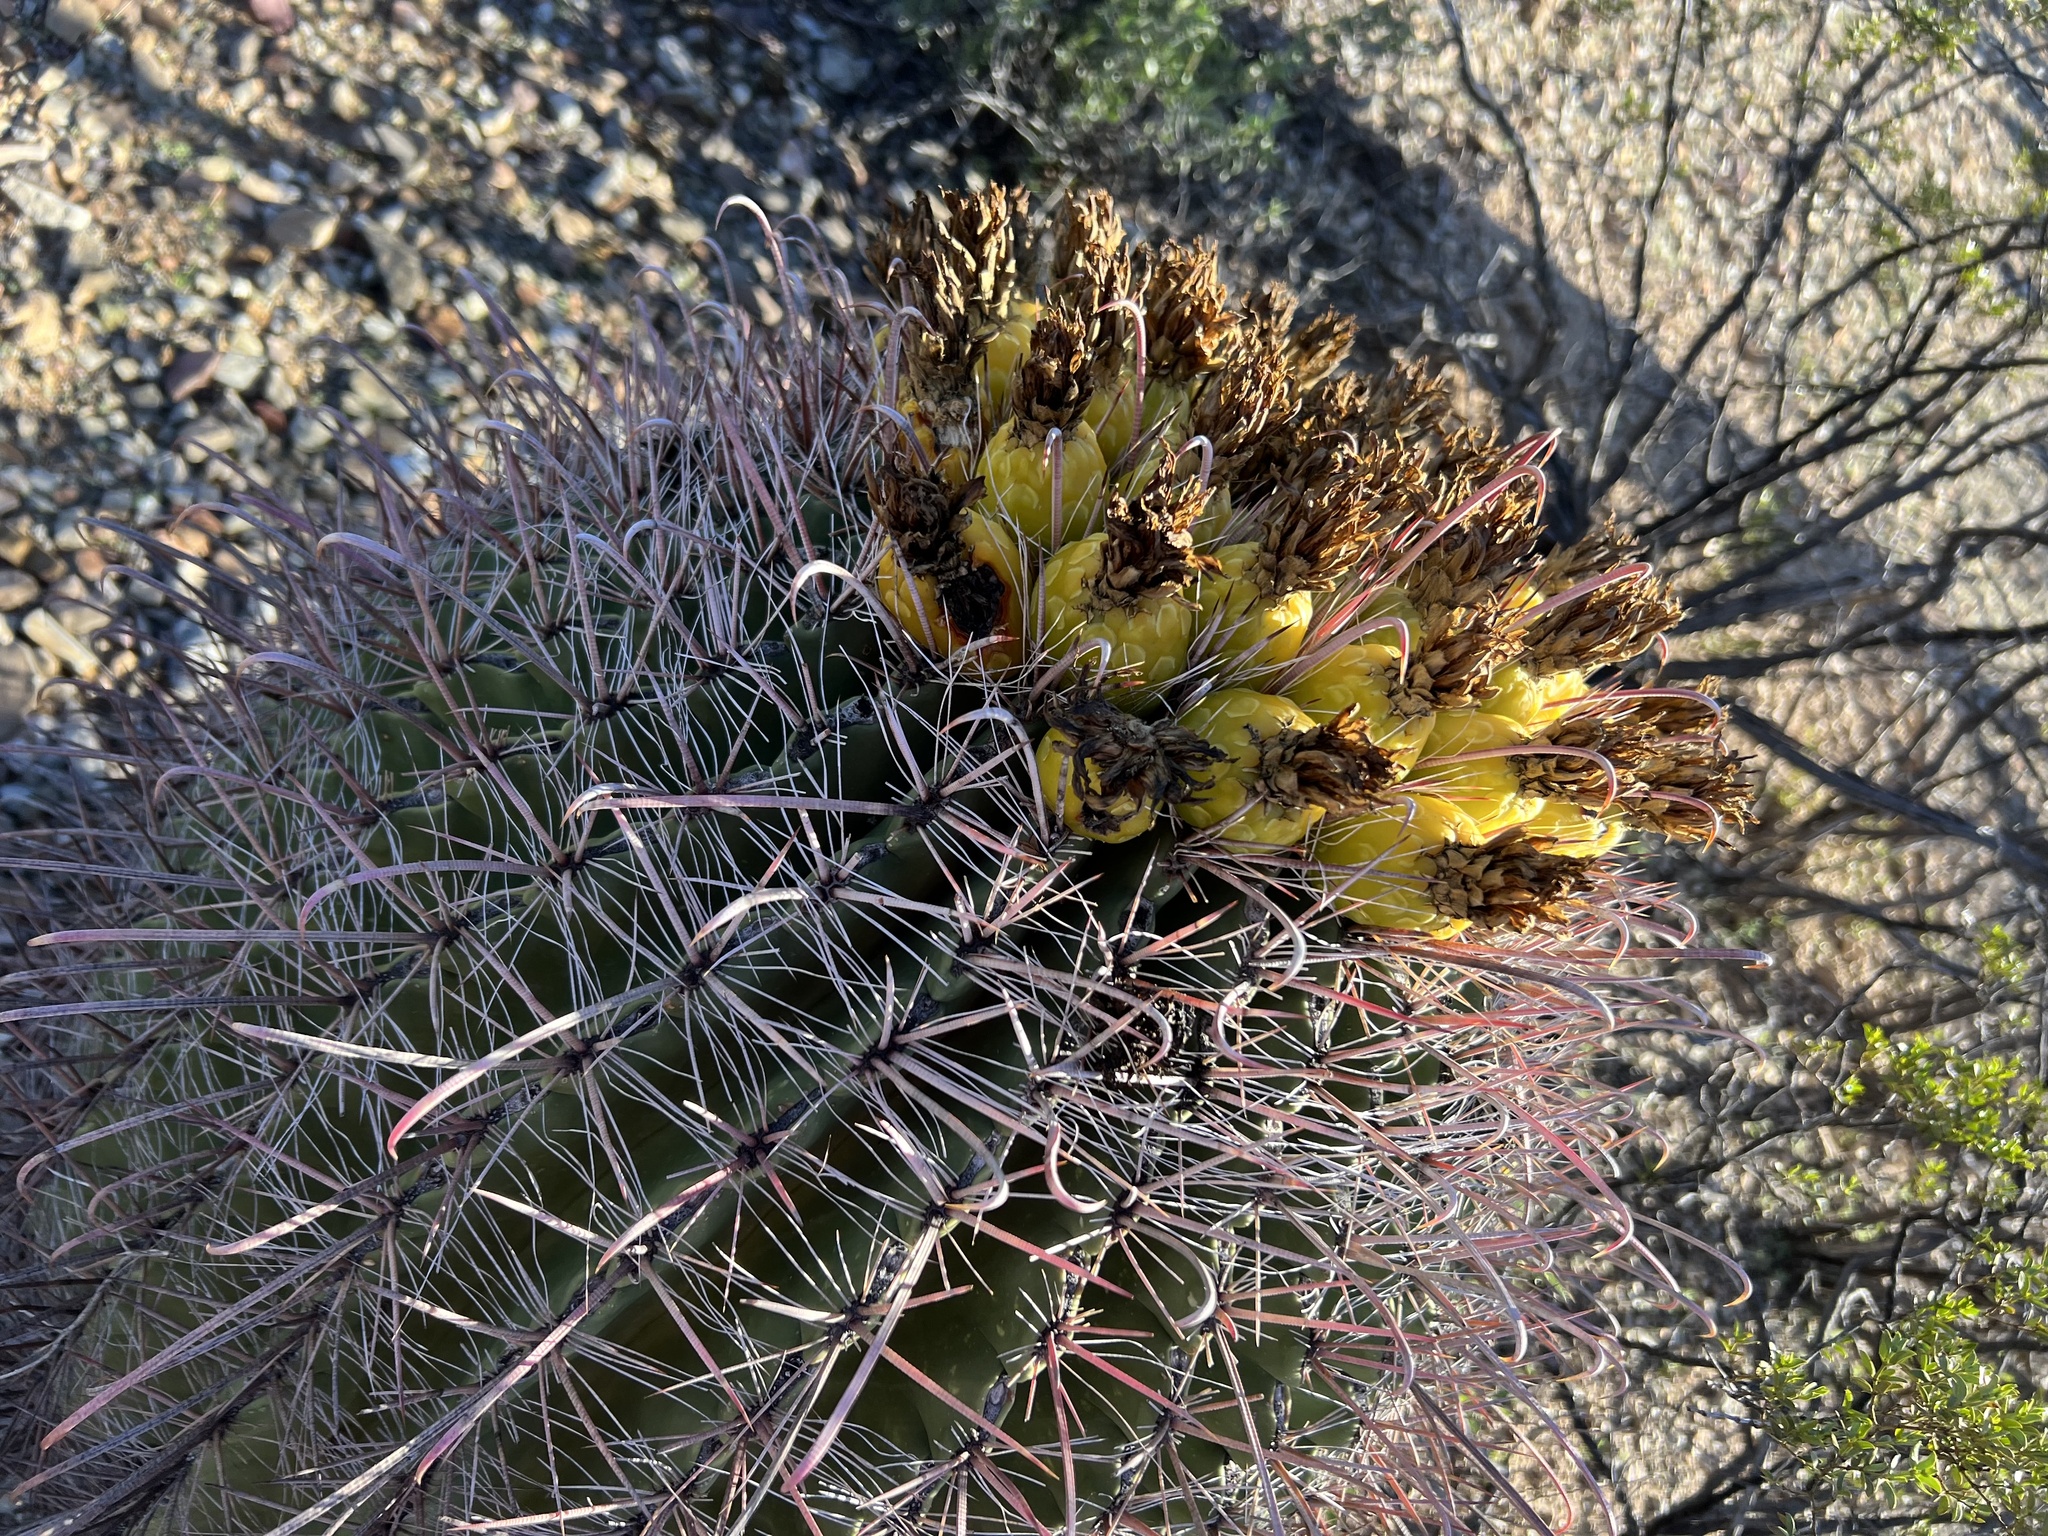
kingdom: Plantae
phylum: Tracheophyta
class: Magnoliopsida
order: Caryophyllales
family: Cactaceae
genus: Ferocactus
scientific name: Ferocactus wislizeni
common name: Candy barrel cactus
